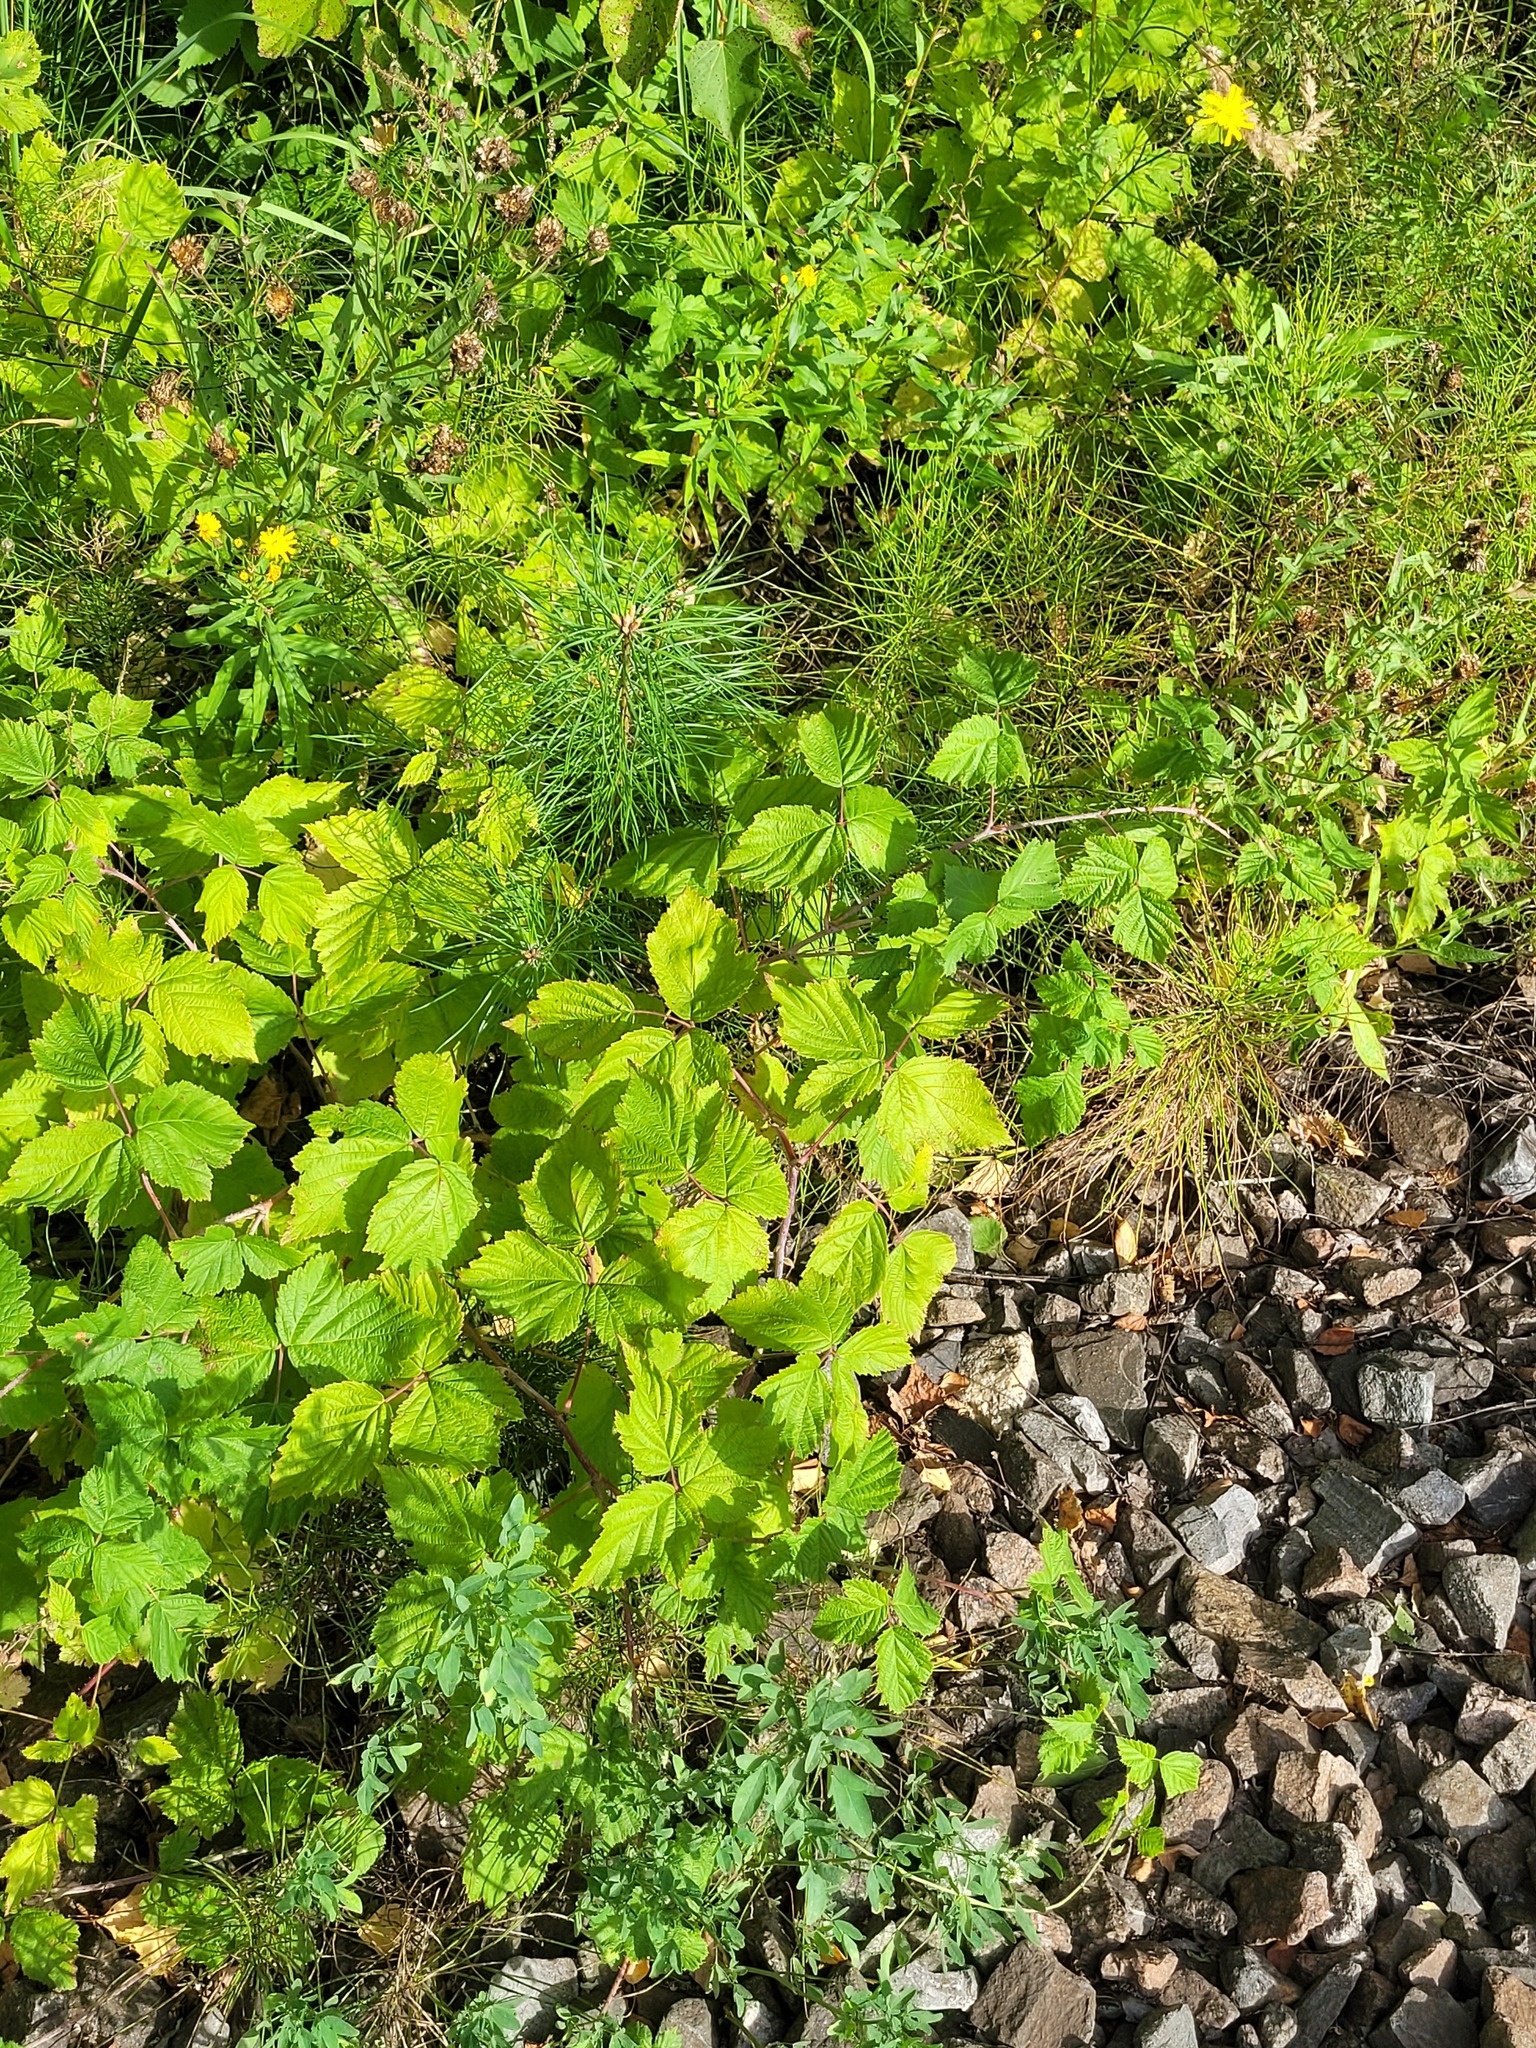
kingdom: Plantae
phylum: Tracheophyta
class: Magnoliopsida
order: Rosales
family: Rosaceae
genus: Rubus
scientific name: Rubus caesius
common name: Dewberry
